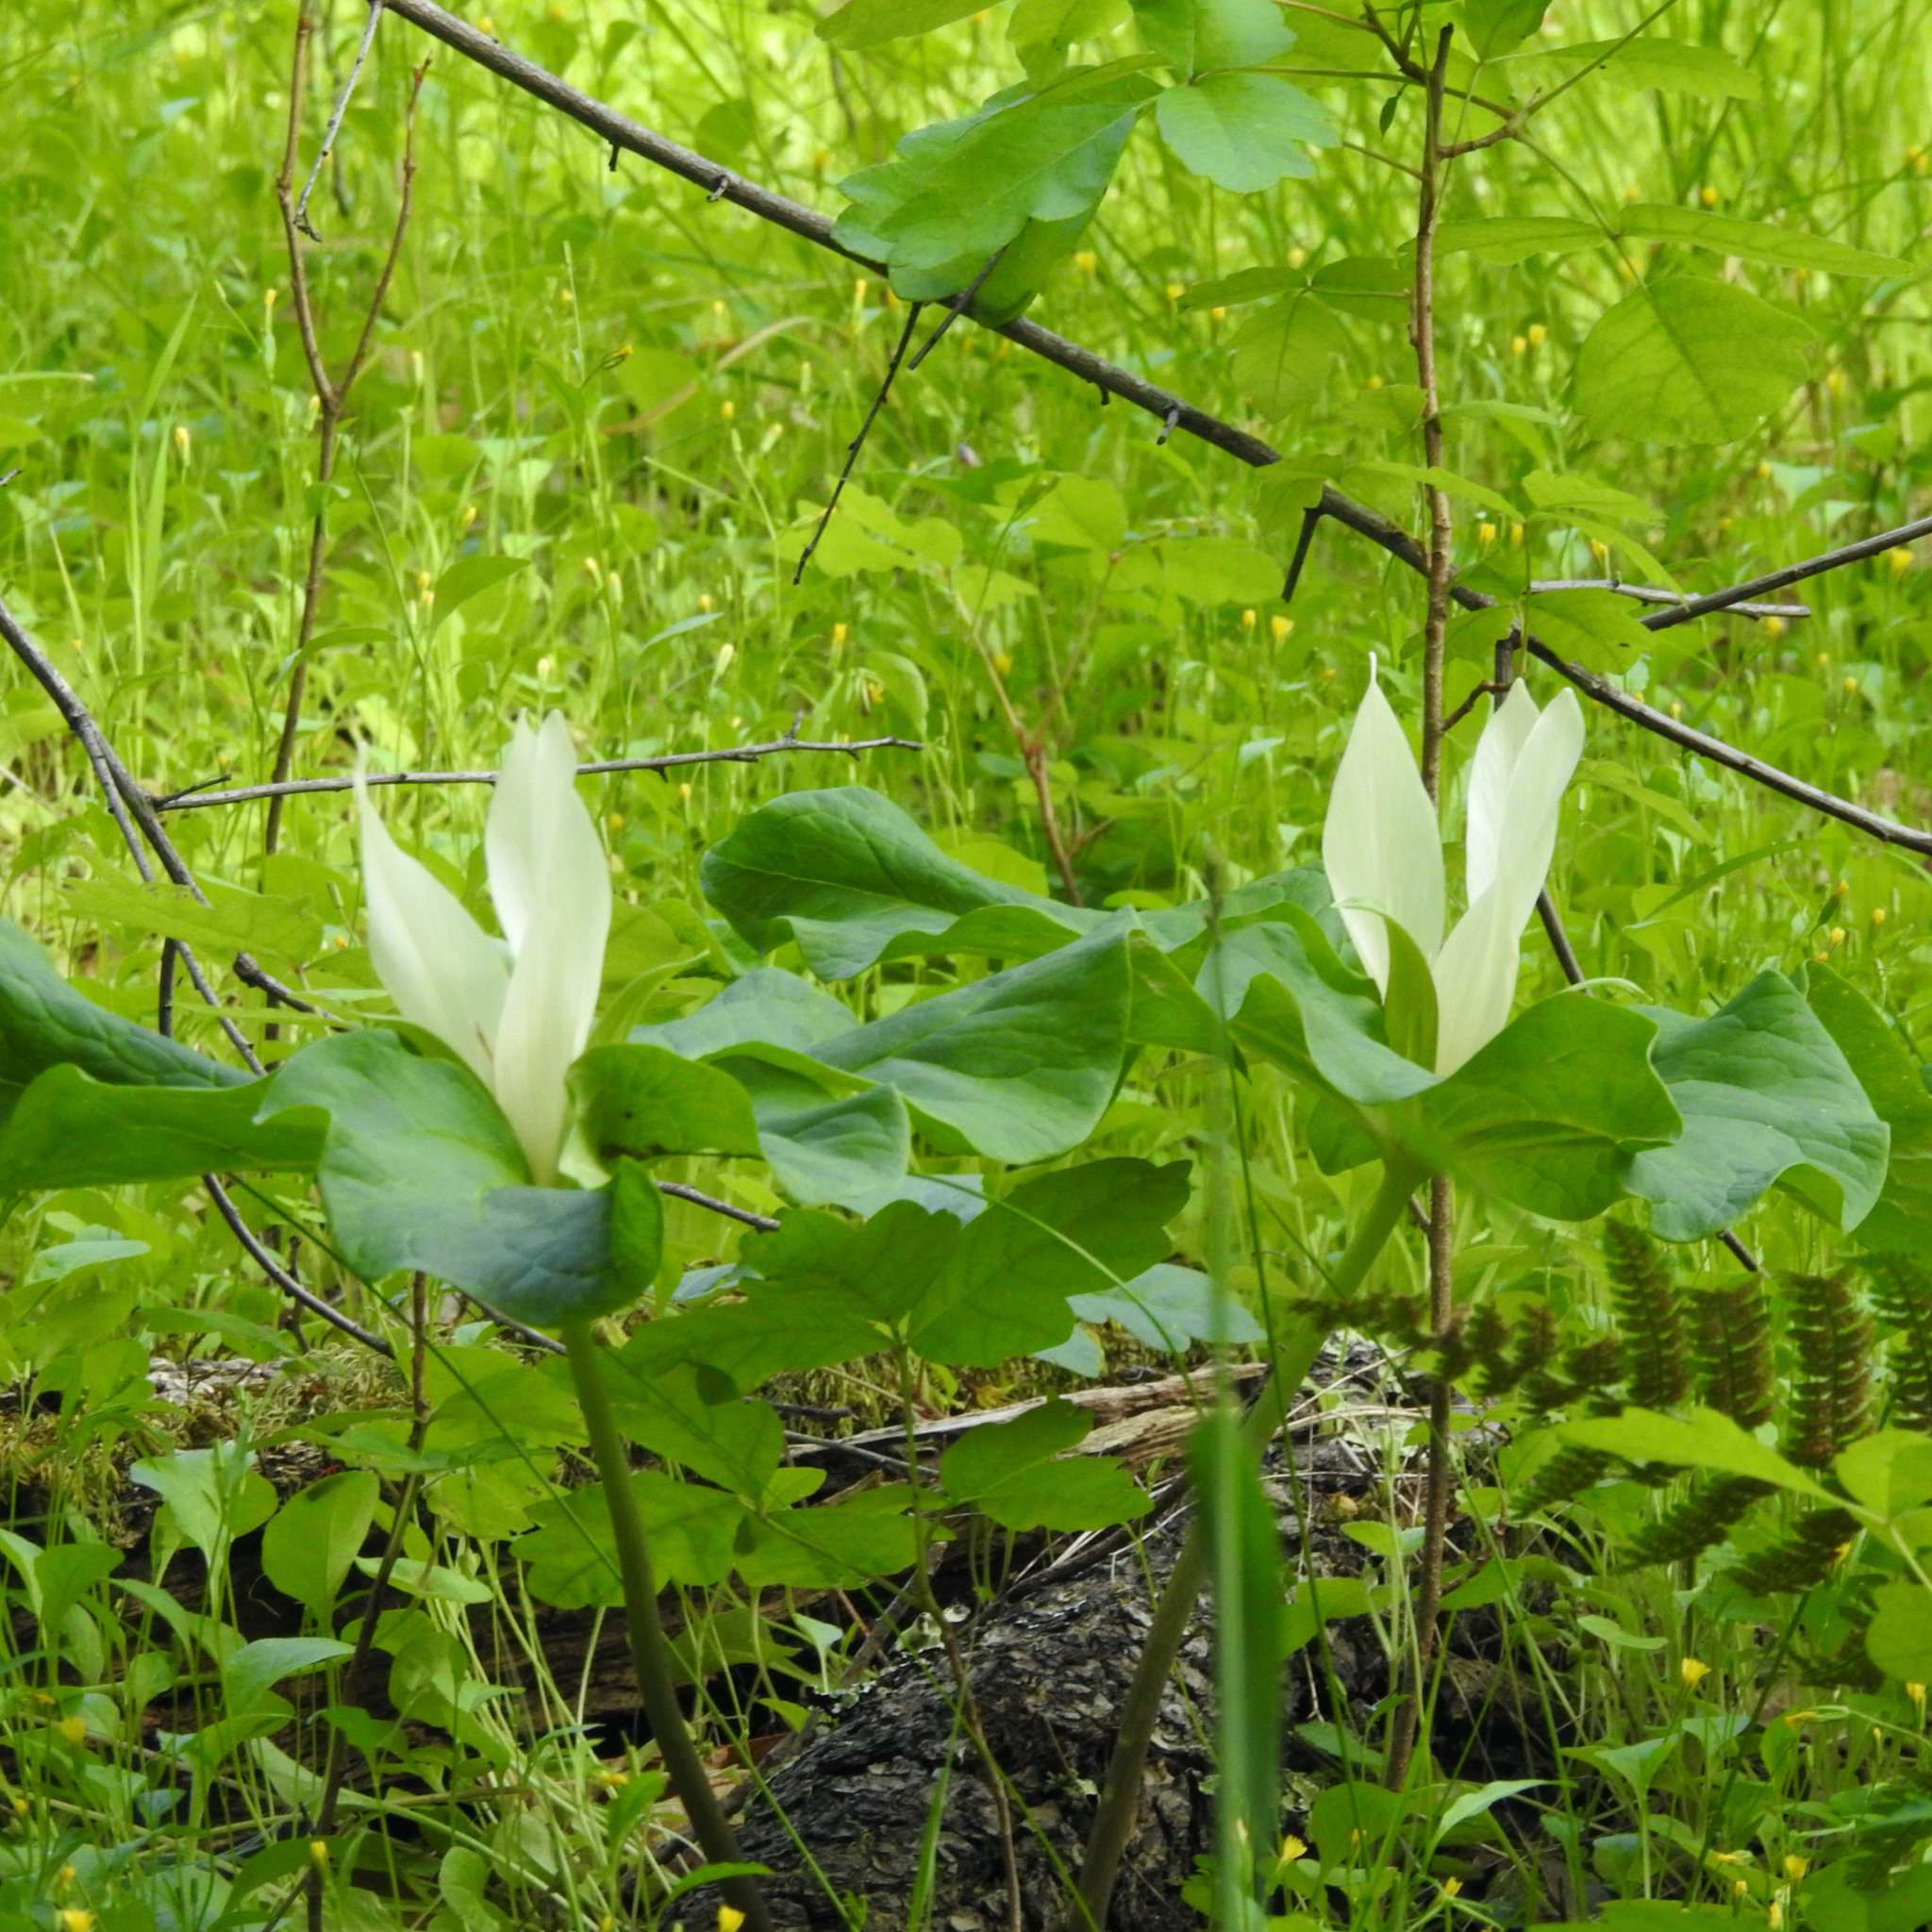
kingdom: Plantae
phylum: Tracheophyta
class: Liliopsida
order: Liliales
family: Melanthiaceae
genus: Trillium
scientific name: Trillium albidum
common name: Freeman's trillium
